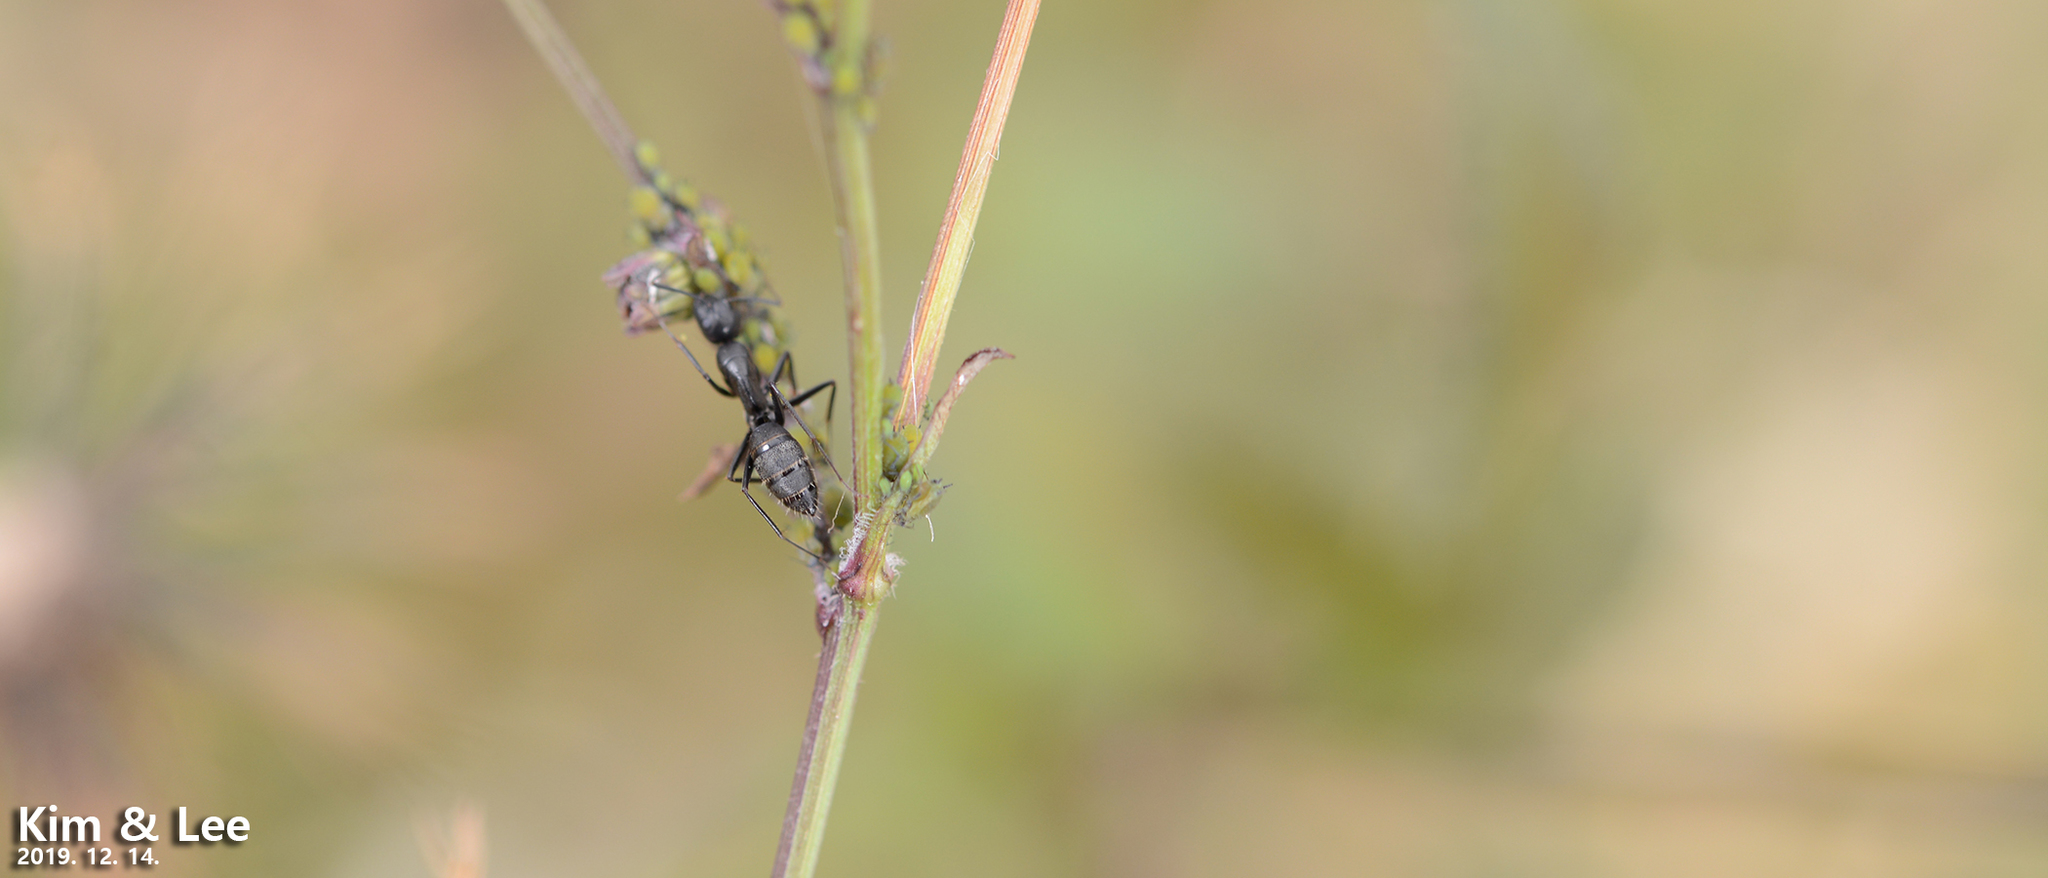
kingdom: Animalia
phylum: Arthropoda
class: Insecta
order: Hymenoptera
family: Formicidae
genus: Camponotus
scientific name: Camponotus japonicus
